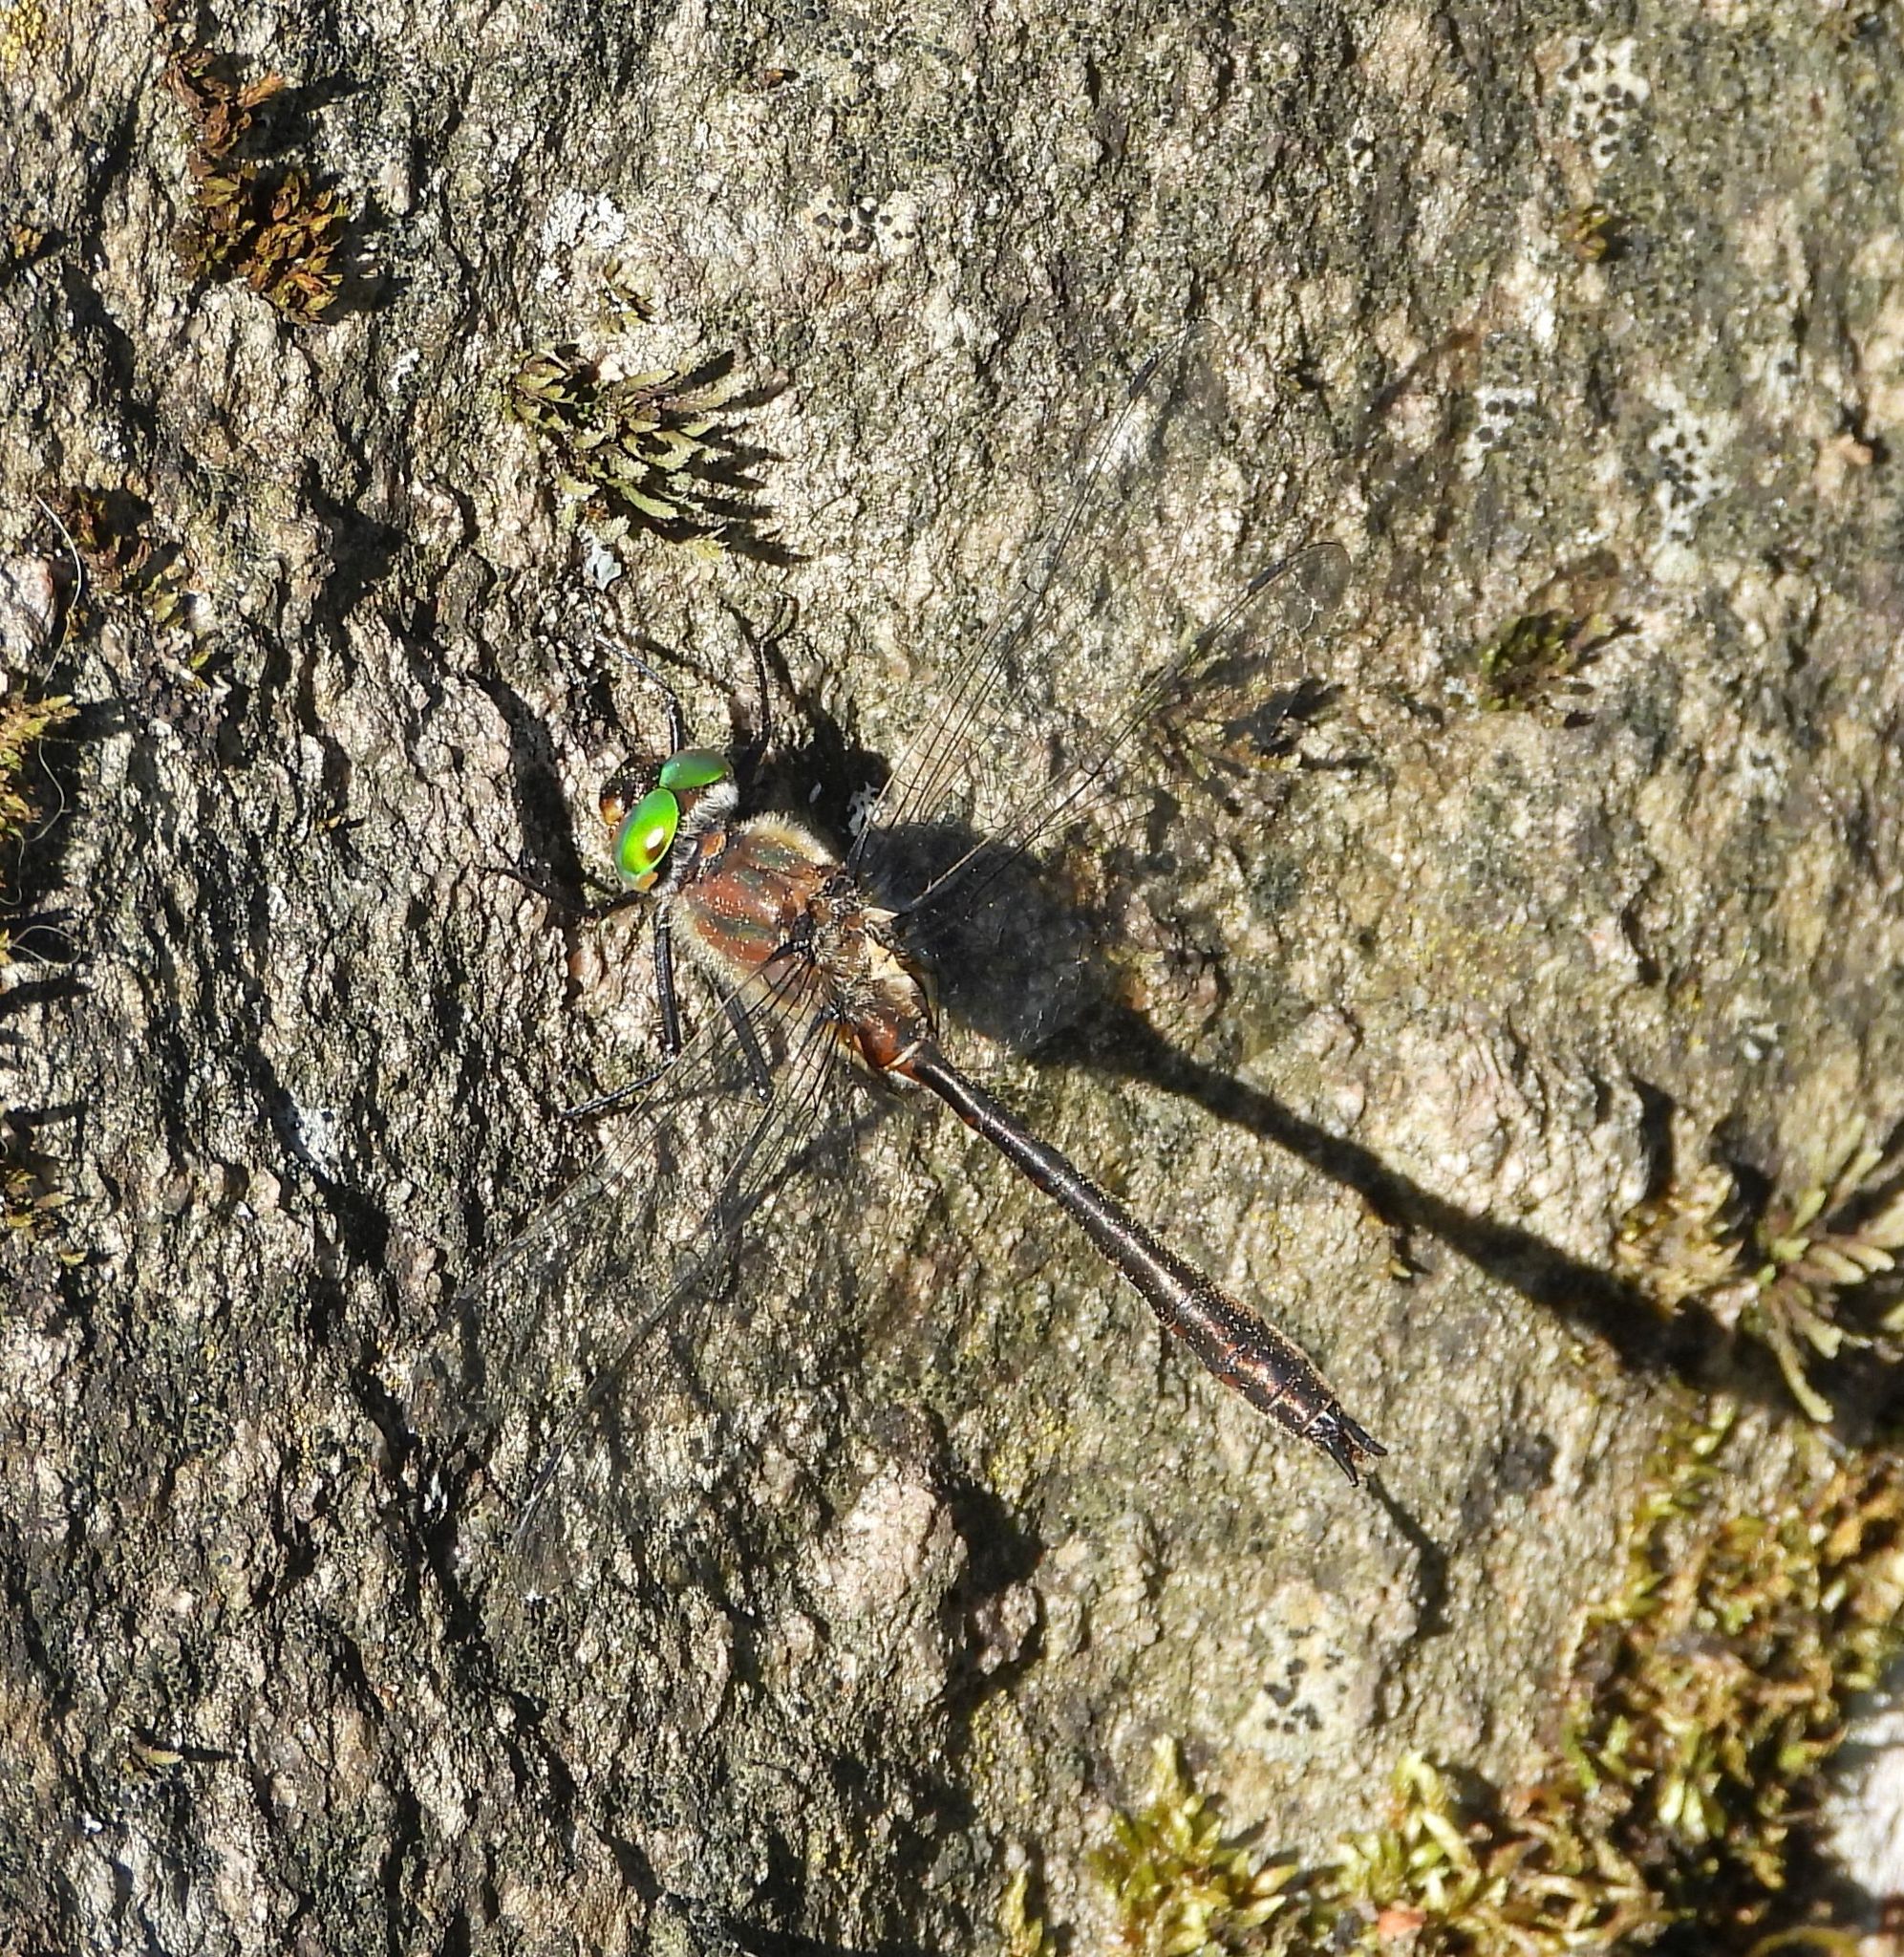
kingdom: Animalia
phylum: Arthropoda
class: Insecta
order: Odonata
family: Corduliidae
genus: Cordulia
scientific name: Cordulia shurtleffii
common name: American emerald
